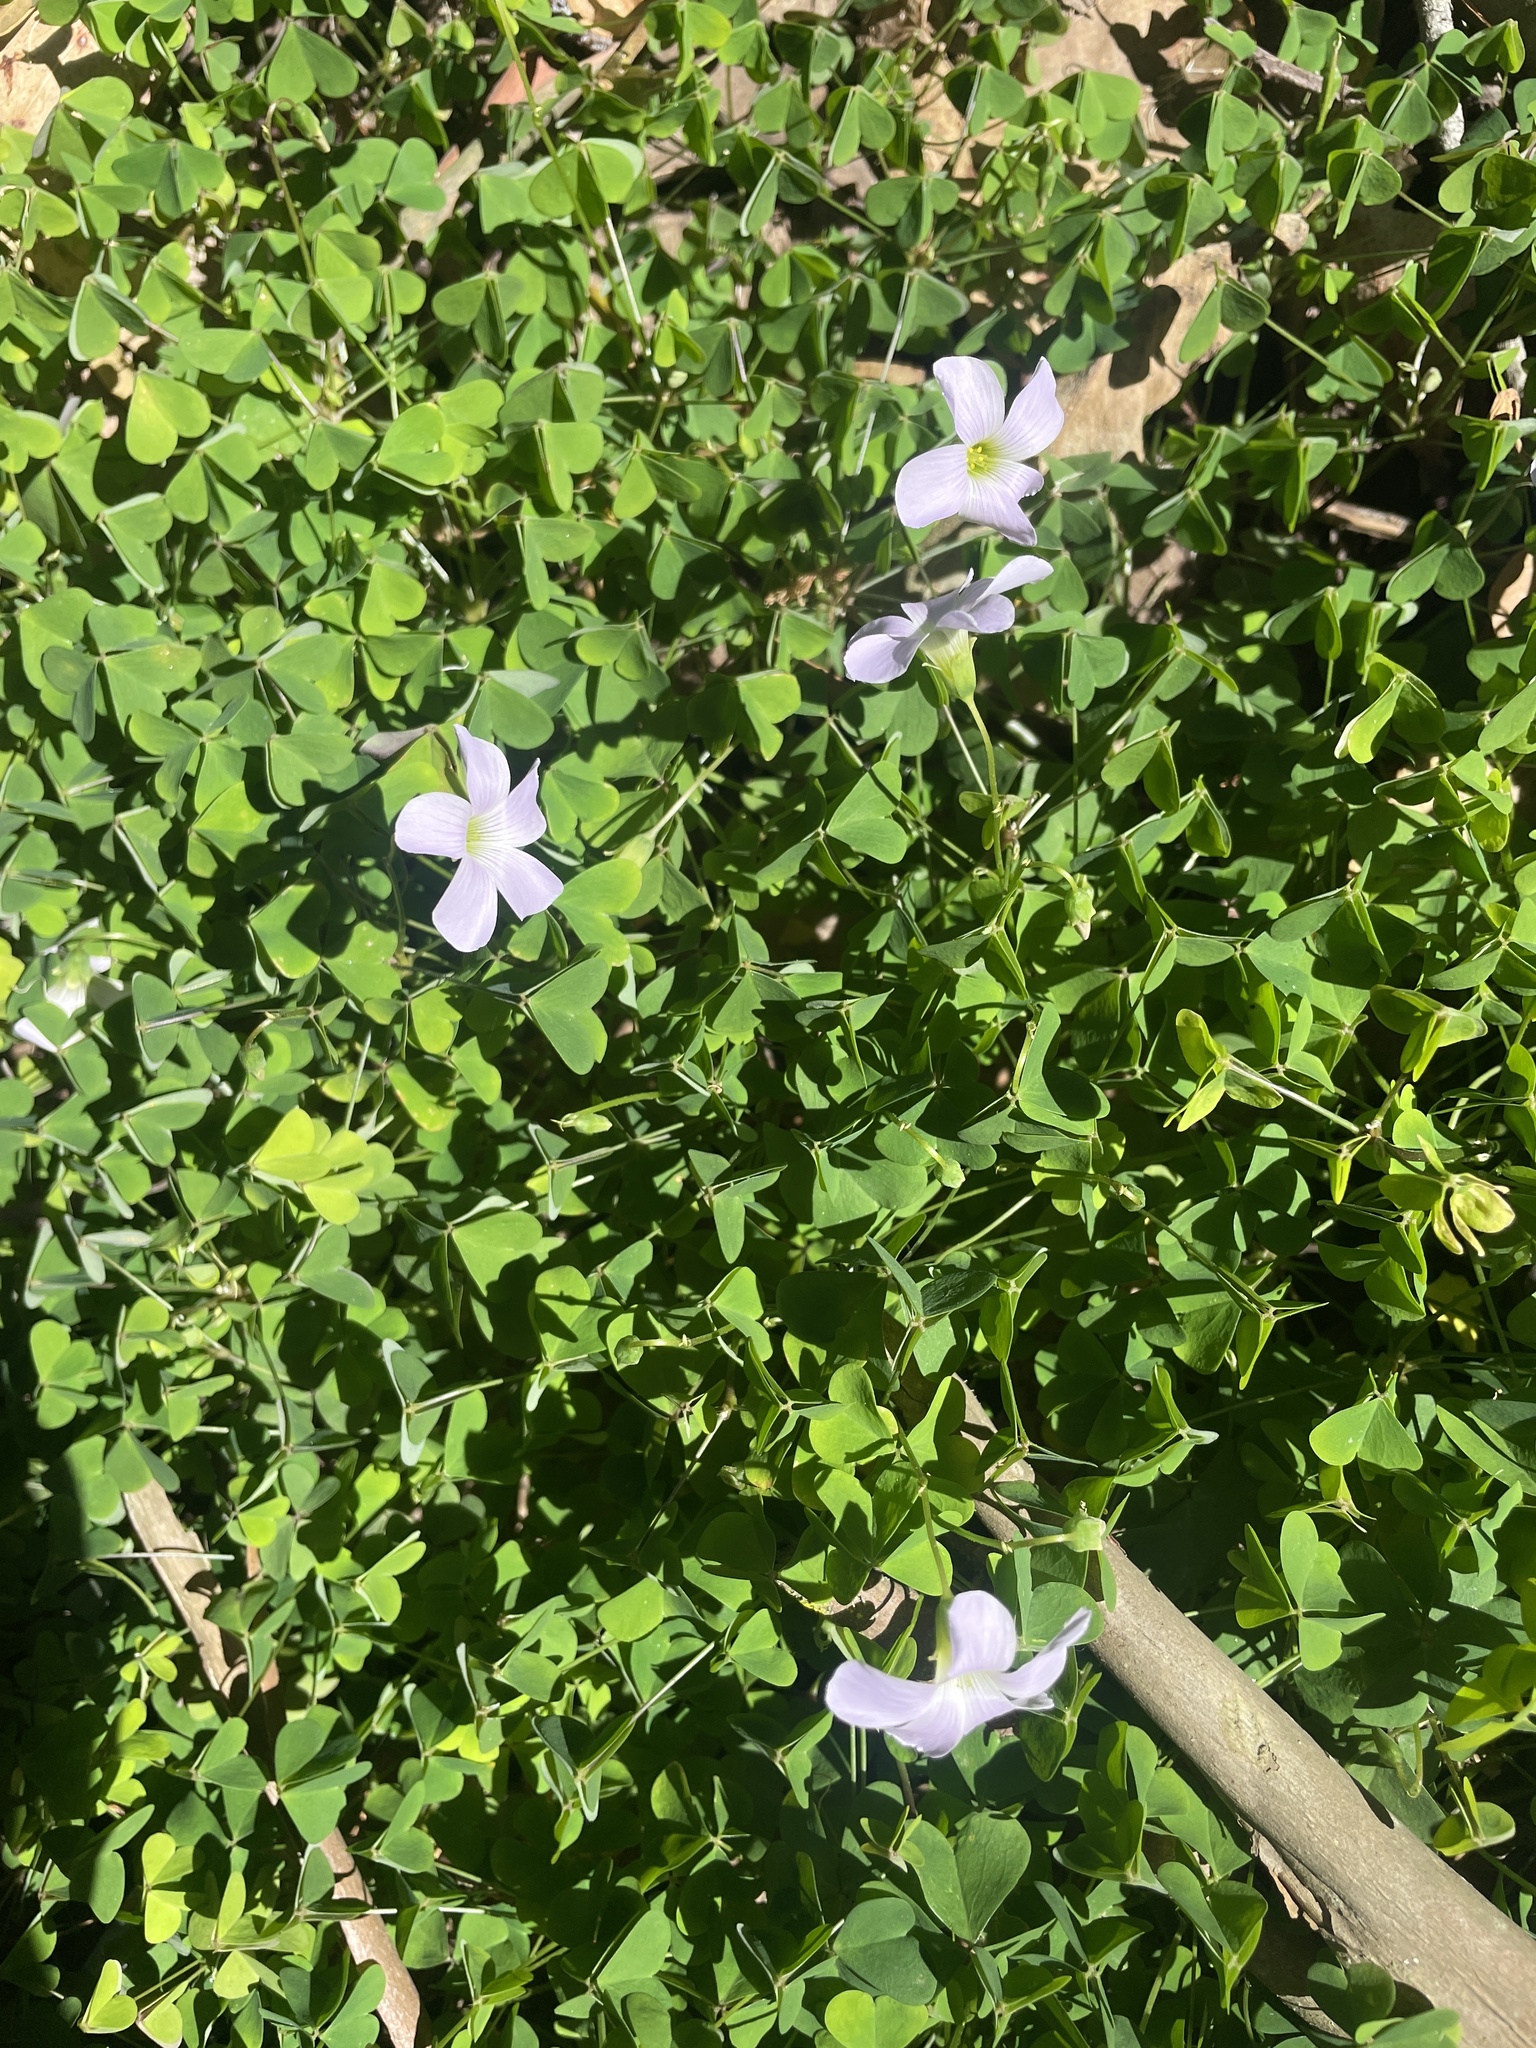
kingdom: Plantae
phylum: Tracheophyta
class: Magnoliopsida
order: Oxalidales
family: Oxalidaceae
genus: Oxalis
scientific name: Oxalis incarnata
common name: Pale pink-sorrel
